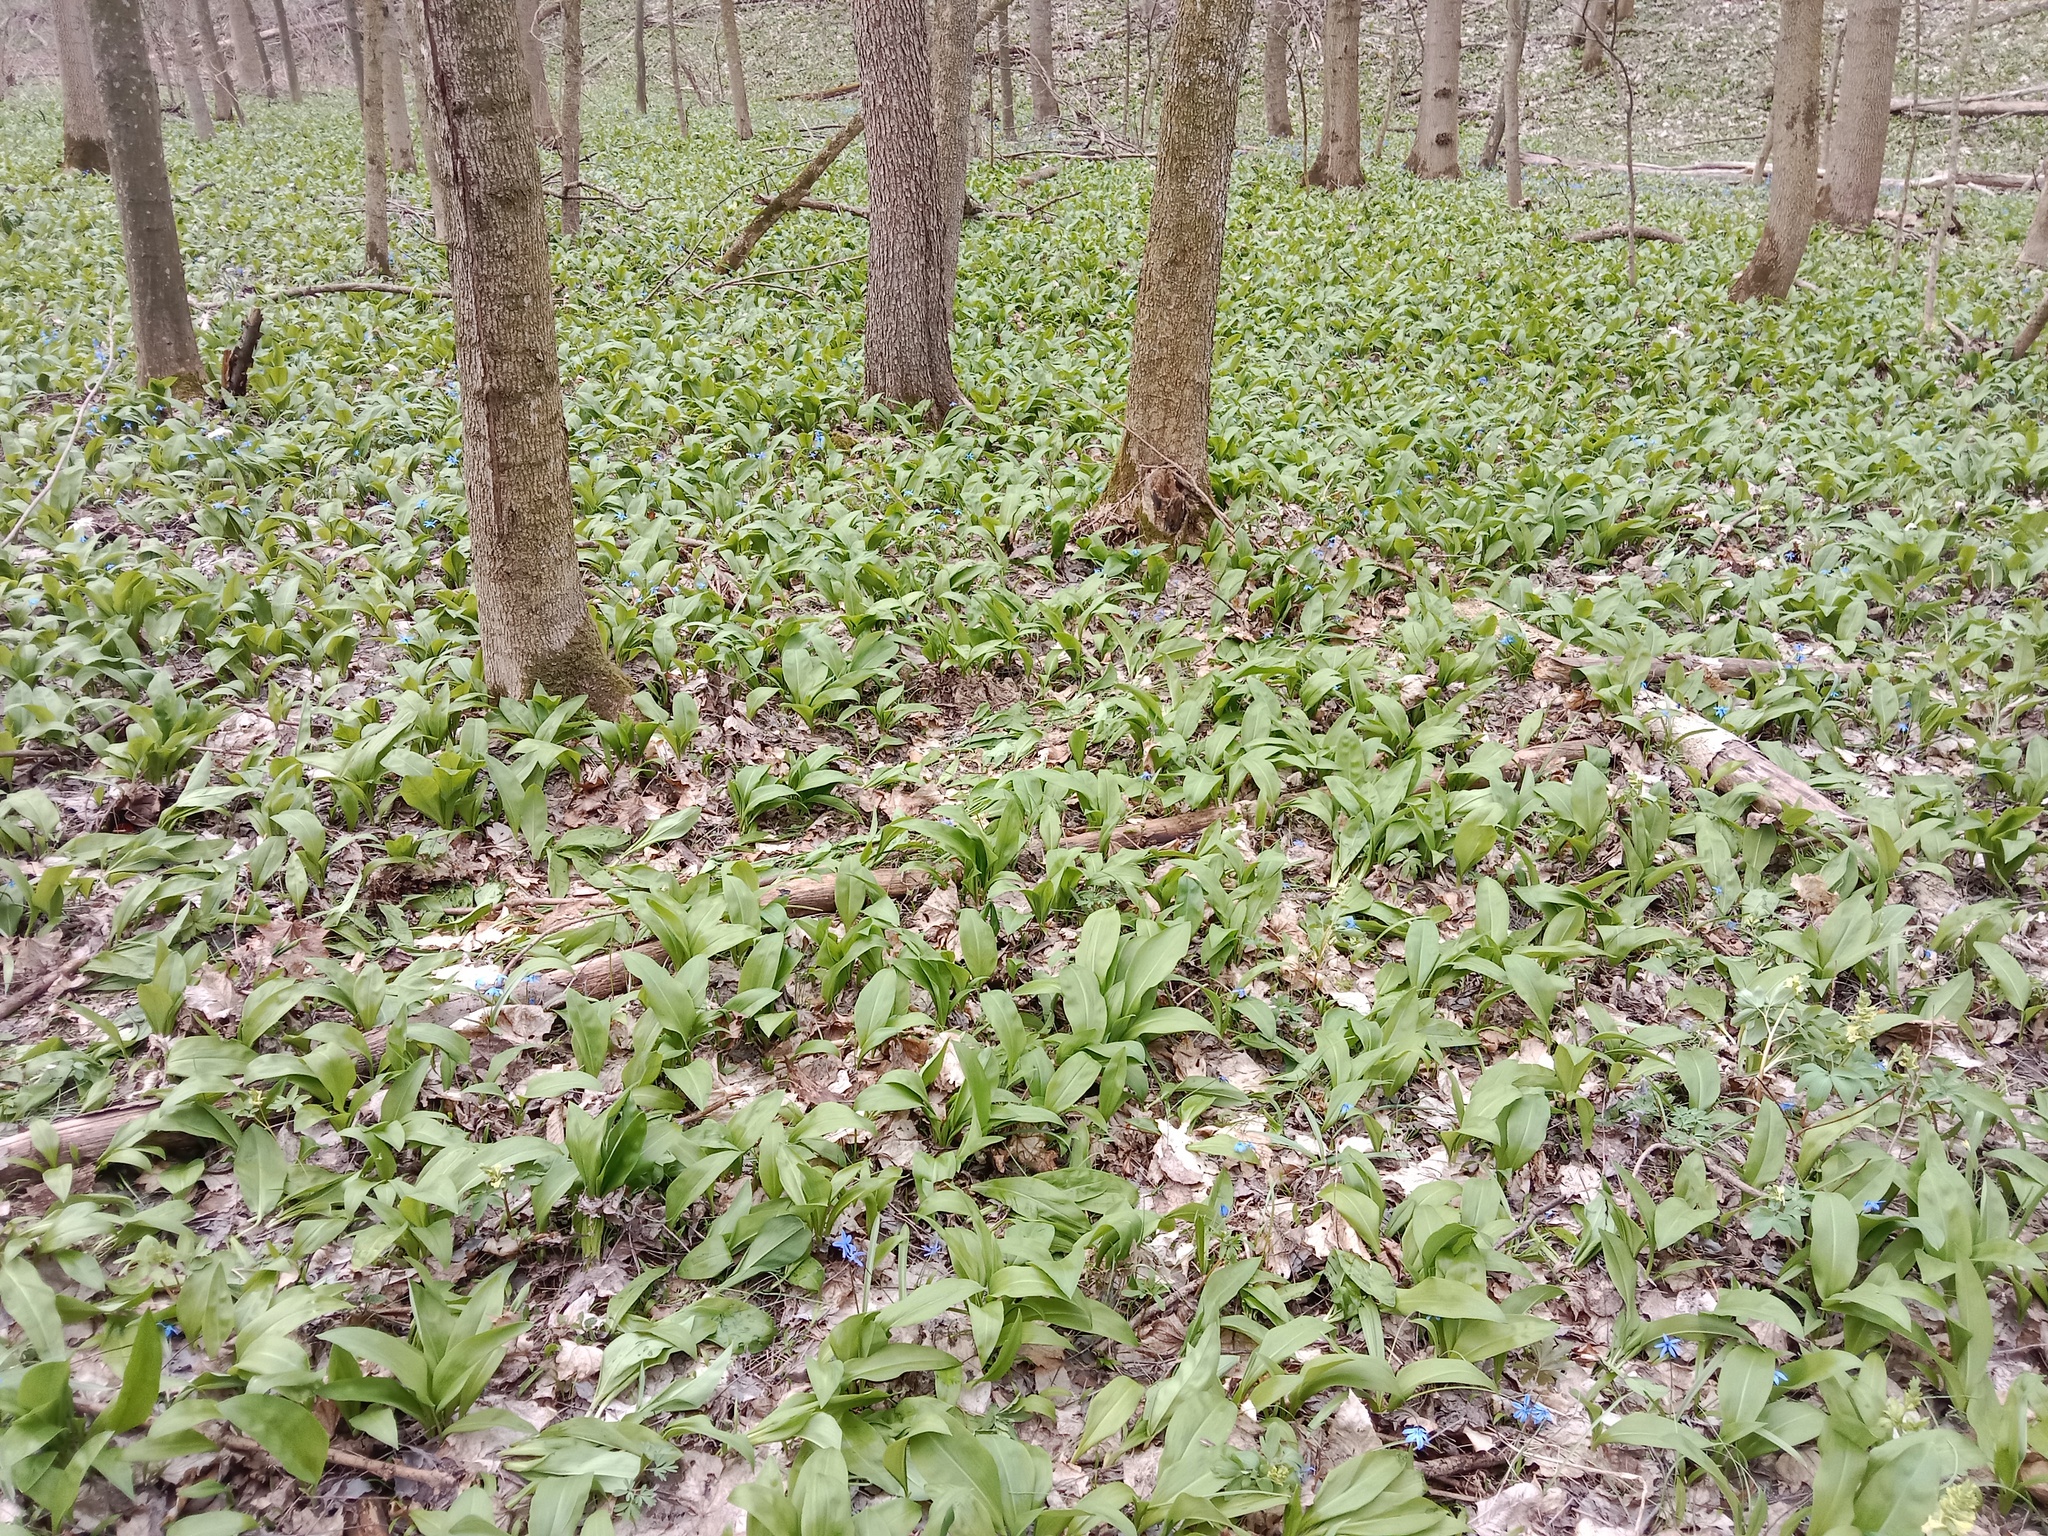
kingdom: Plantae
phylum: Tracheophyta
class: Liliopsida
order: Asparagales
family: Amaryllidaceae
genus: Allium
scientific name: Allium ursinum
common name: Ramsons
